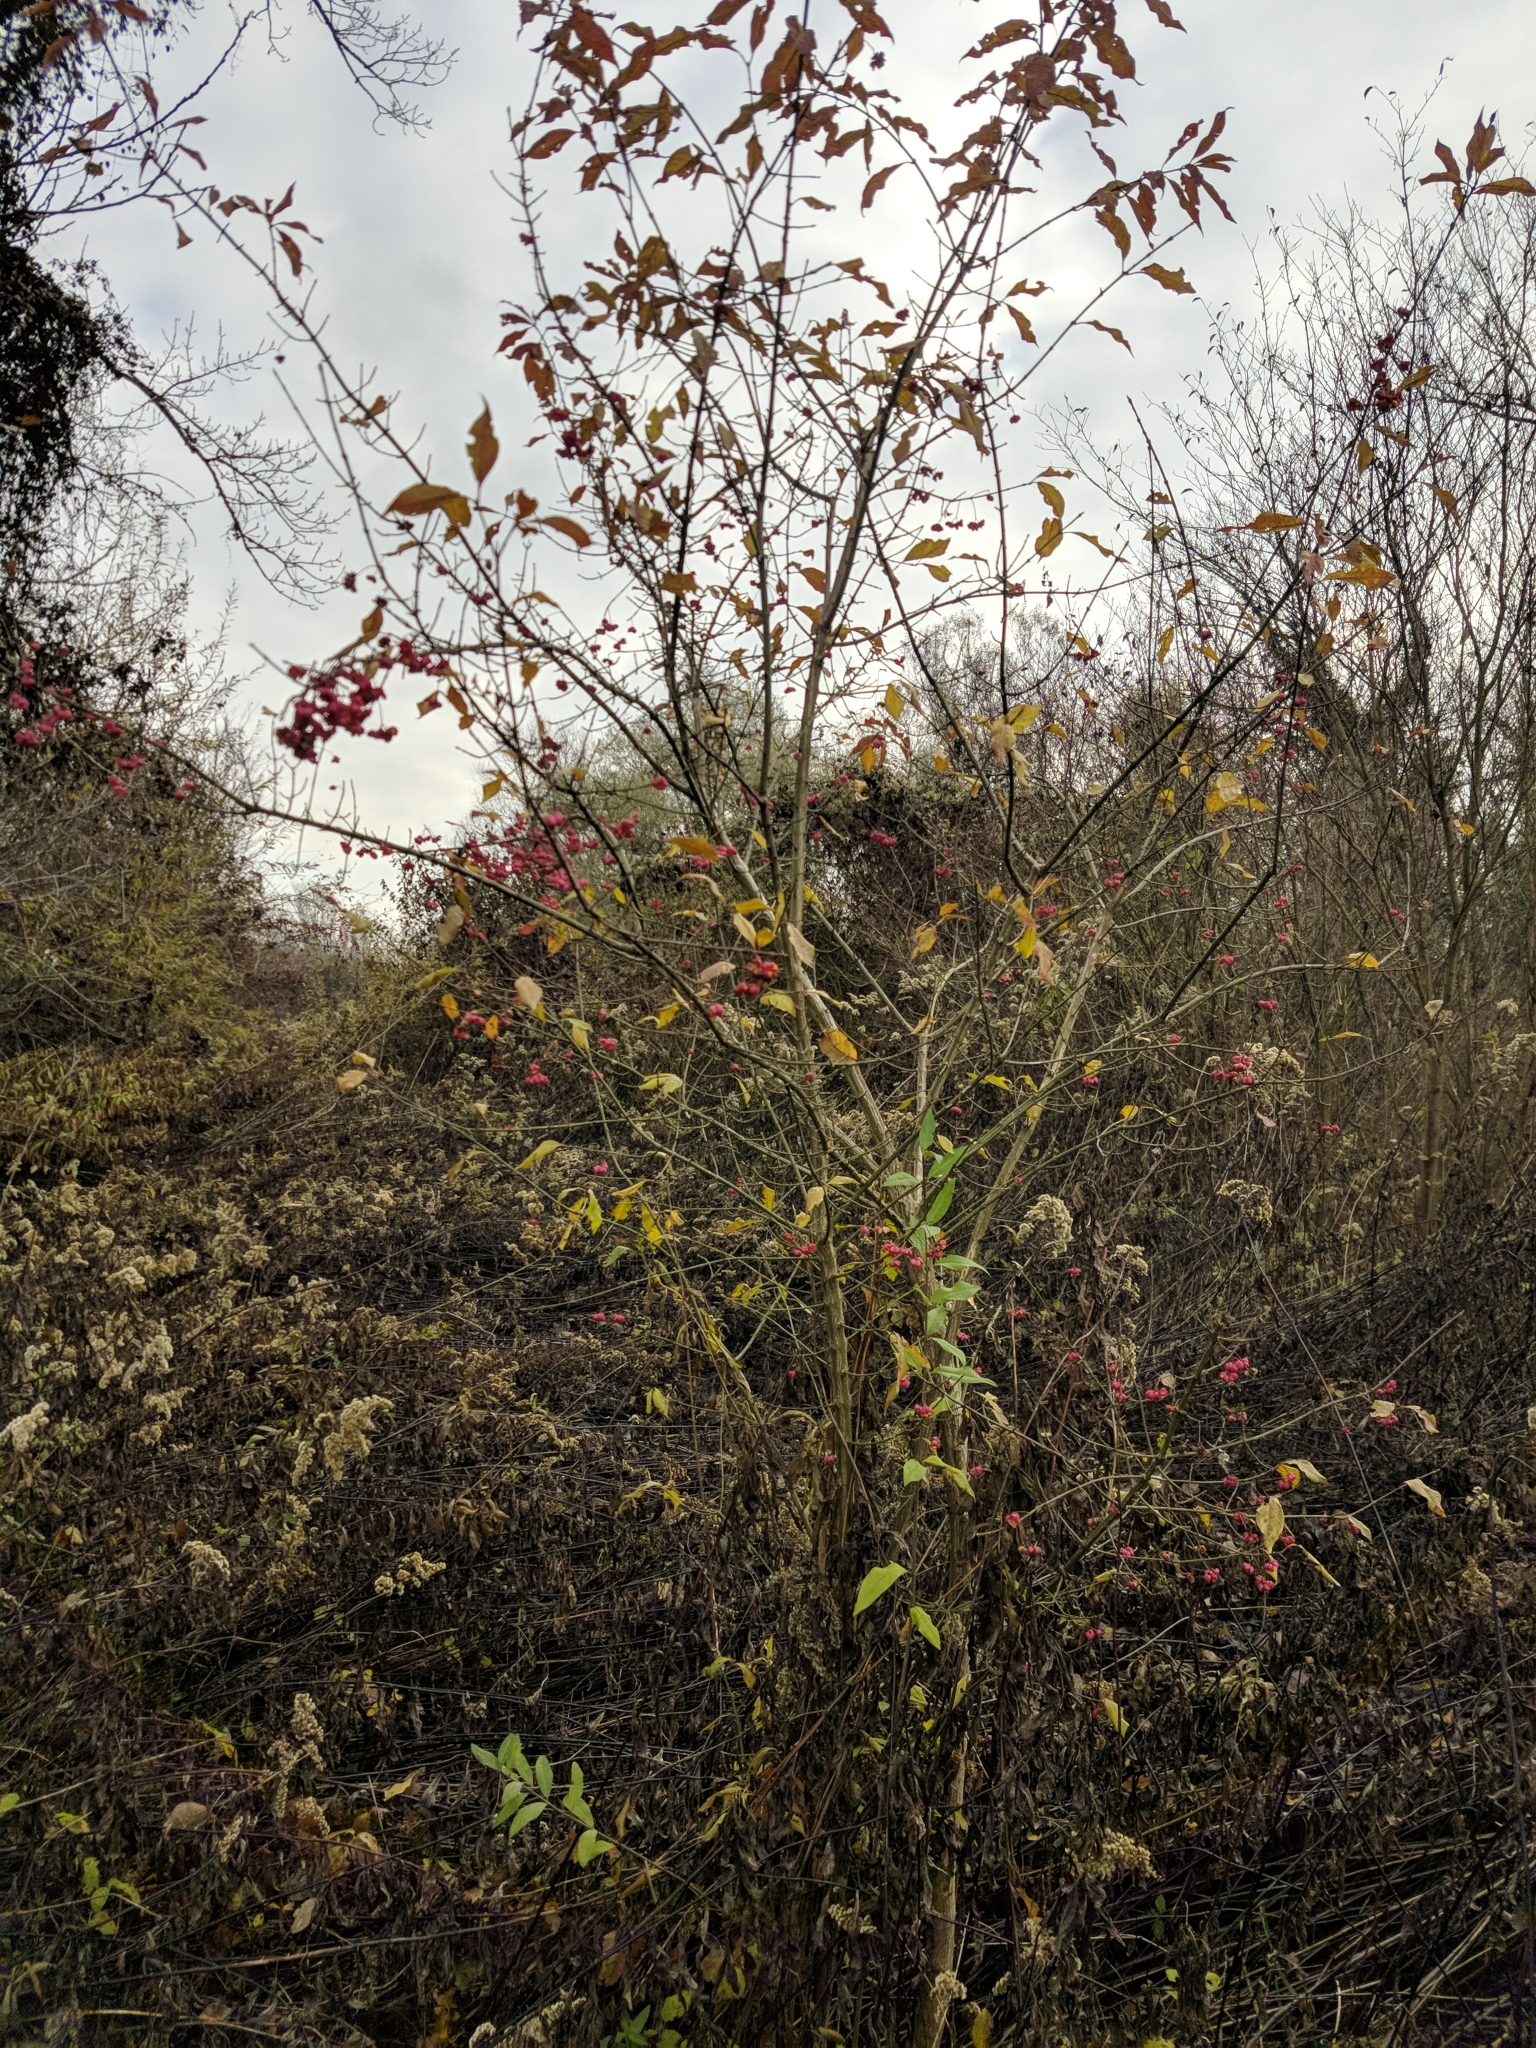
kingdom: Plantae
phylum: Tracheophyta
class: Magnoliopsida
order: Celastrales
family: Celastraceae
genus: Euonymus
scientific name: Euonymus europaeus
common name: Spindle
